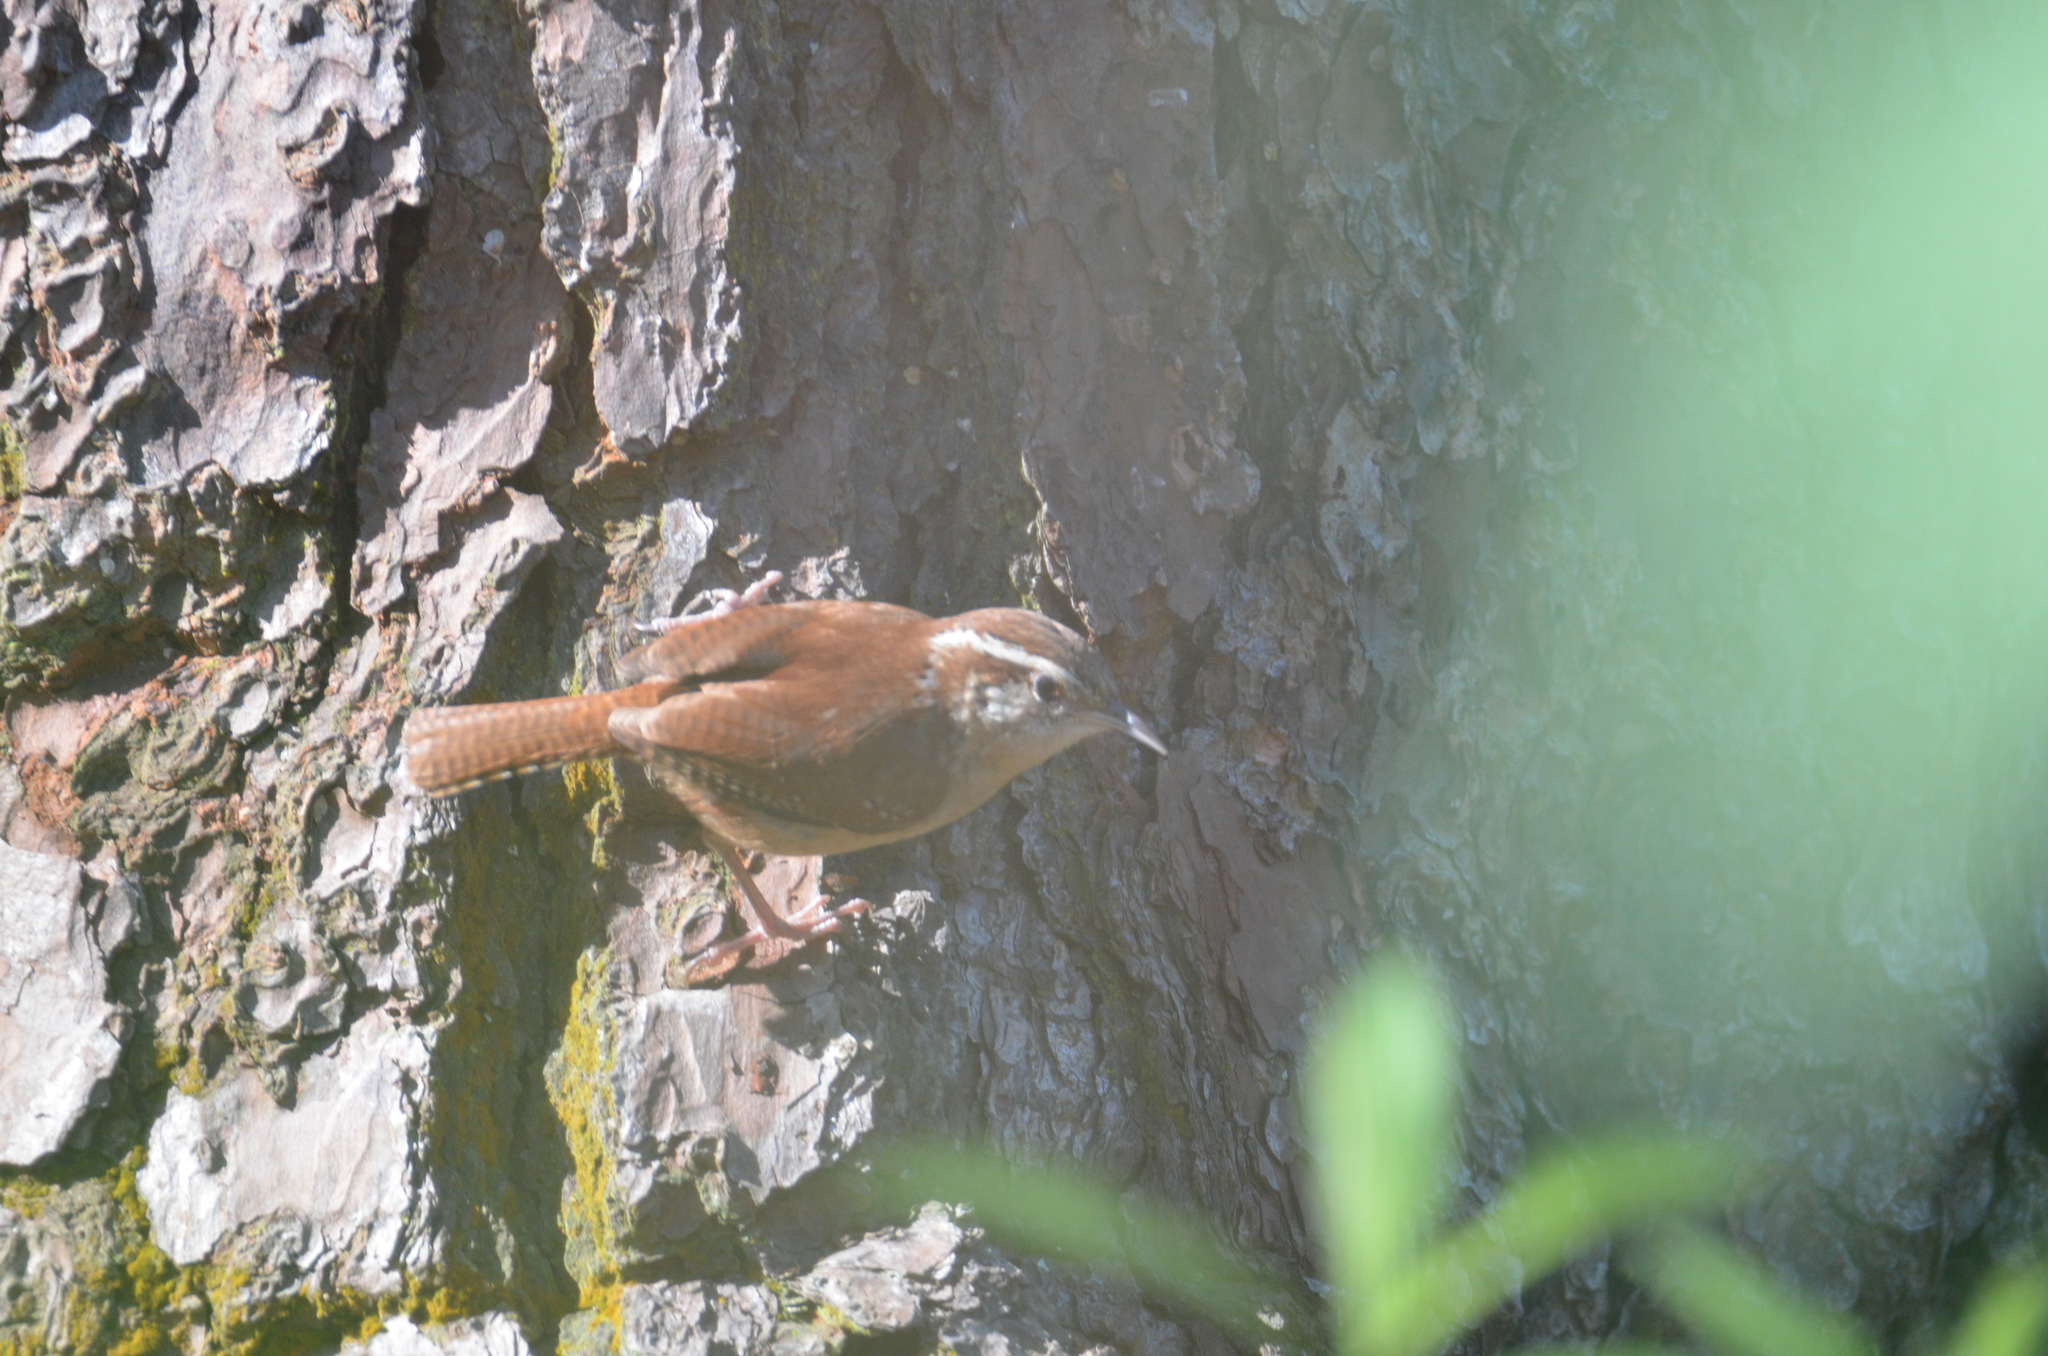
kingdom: Animalia
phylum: Chordata
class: Aves
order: Passeriformes
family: Troglodytidae
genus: Thryothorus
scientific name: Thryothorus ludovicianus
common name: Carolina wren
